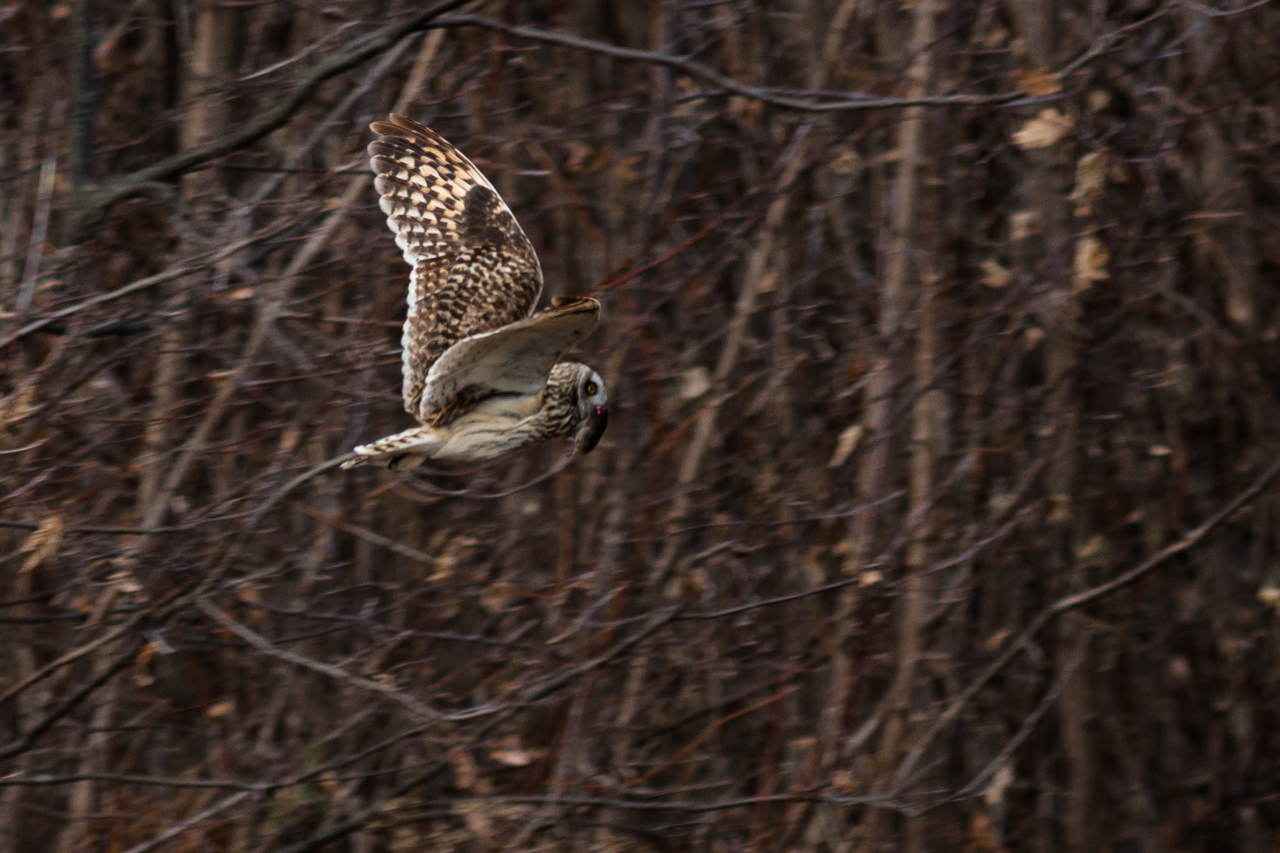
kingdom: Animalia
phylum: Chordata
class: Aves
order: Strigiformes
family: Strigidae
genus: Asio
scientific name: Asio flammeus
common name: Short-eared owl
